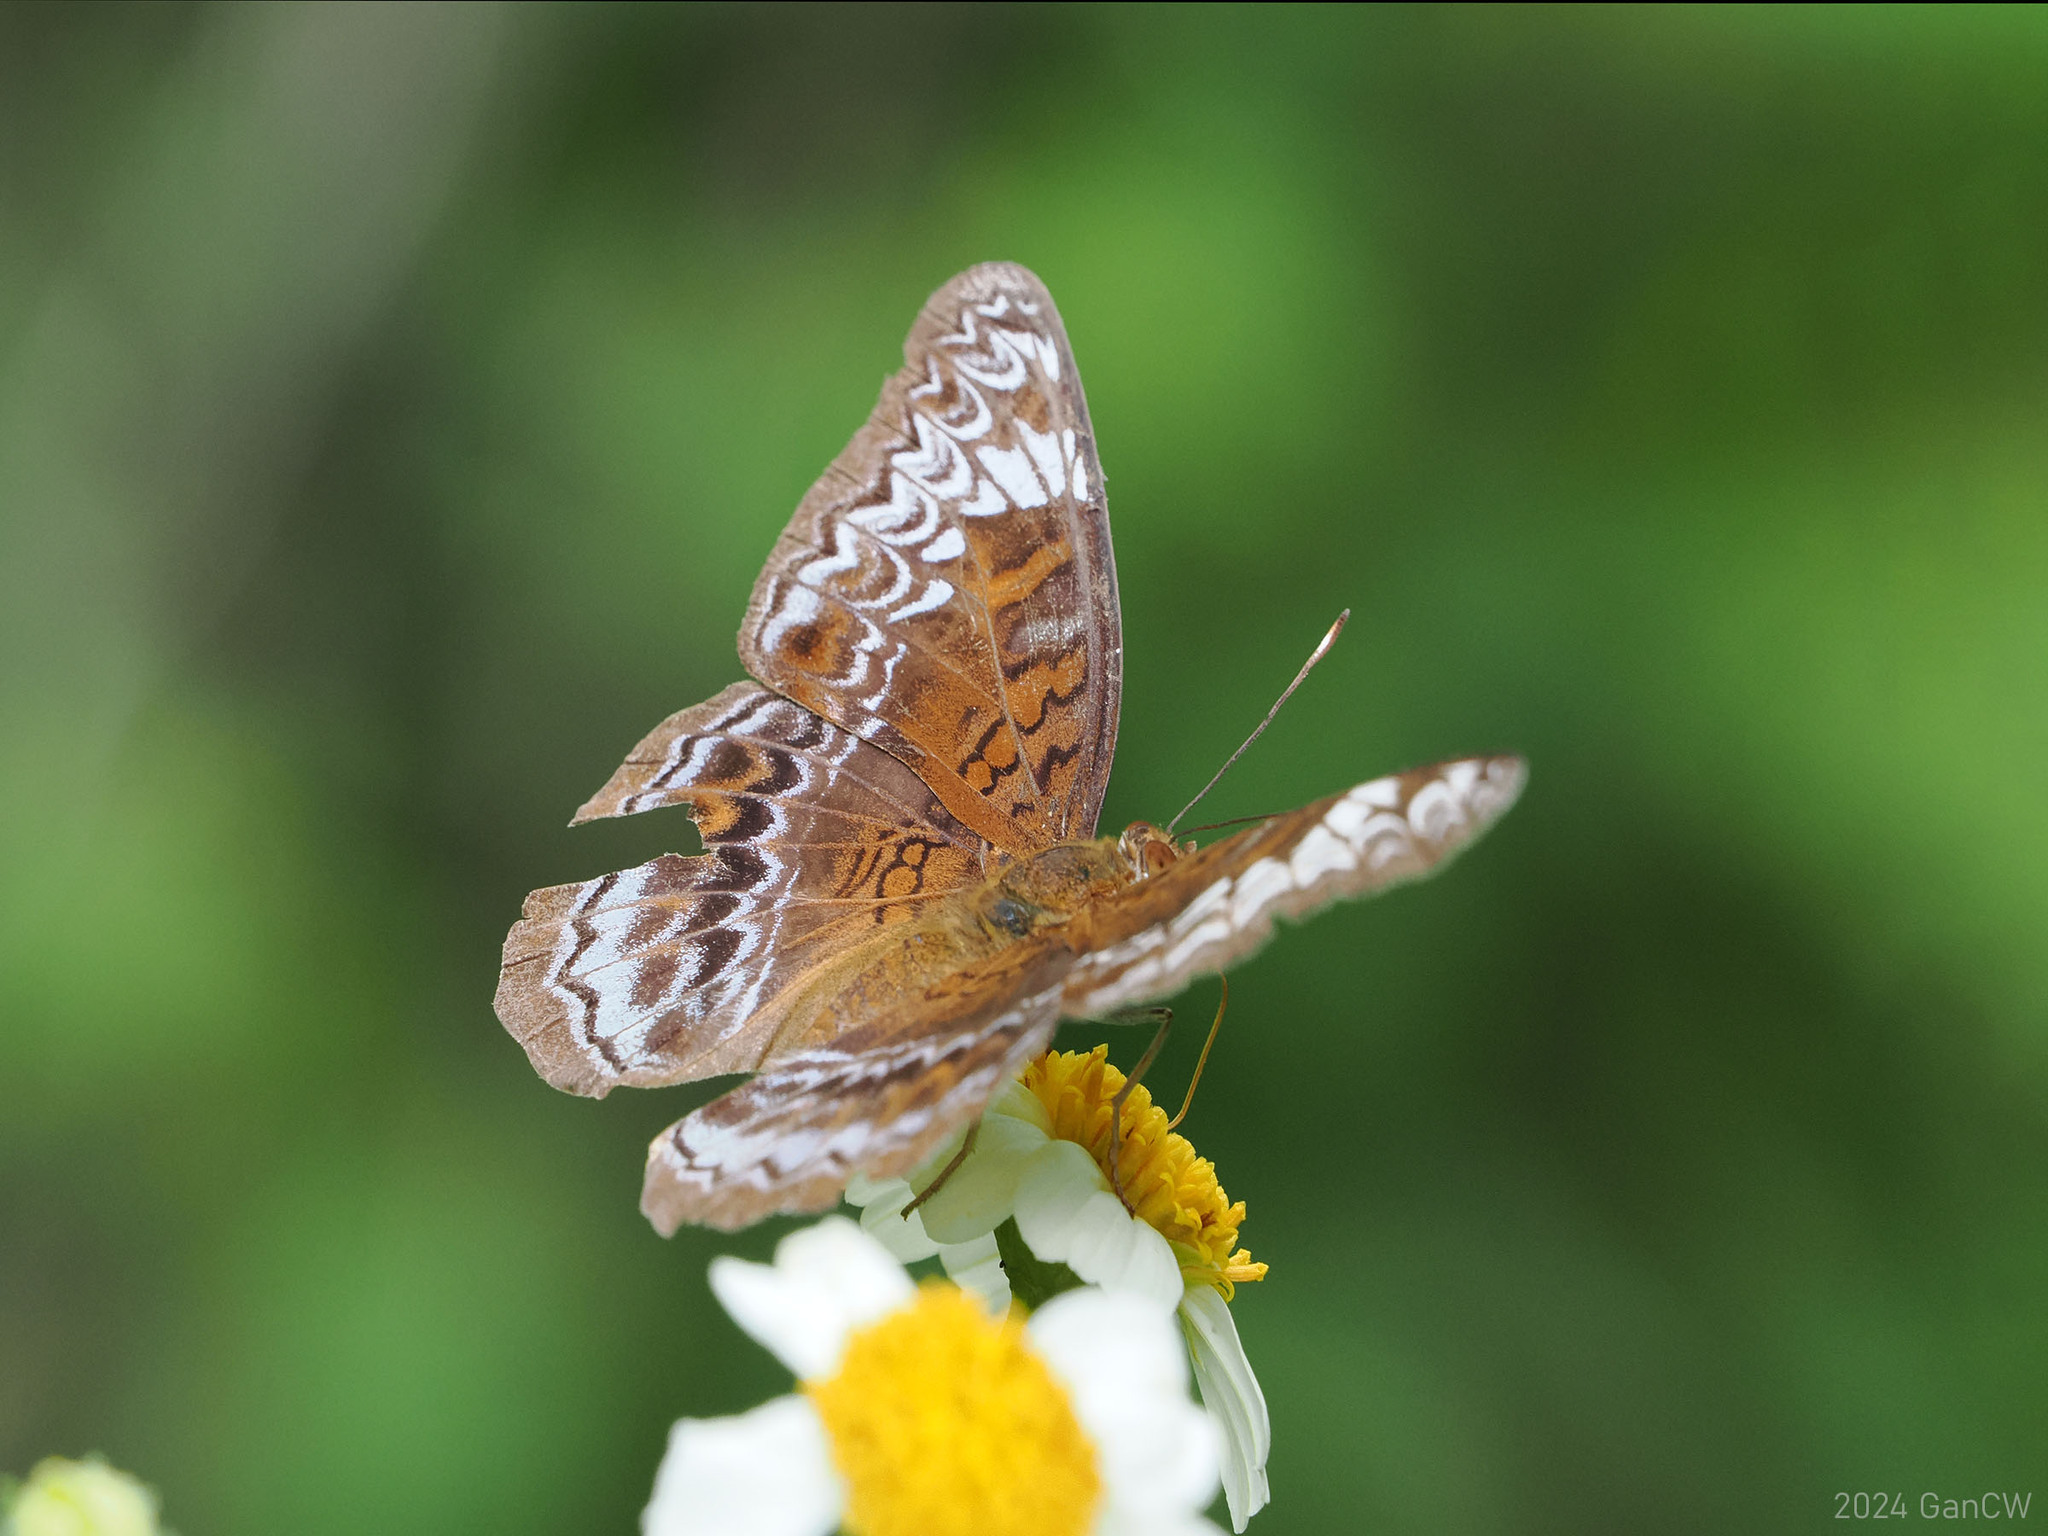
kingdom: Animalia
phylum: Arthropoda
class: Insecta
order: Lepidoptera
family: Nymphalidae
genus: Lebadea
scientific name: Lebadea martha
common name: Knight
